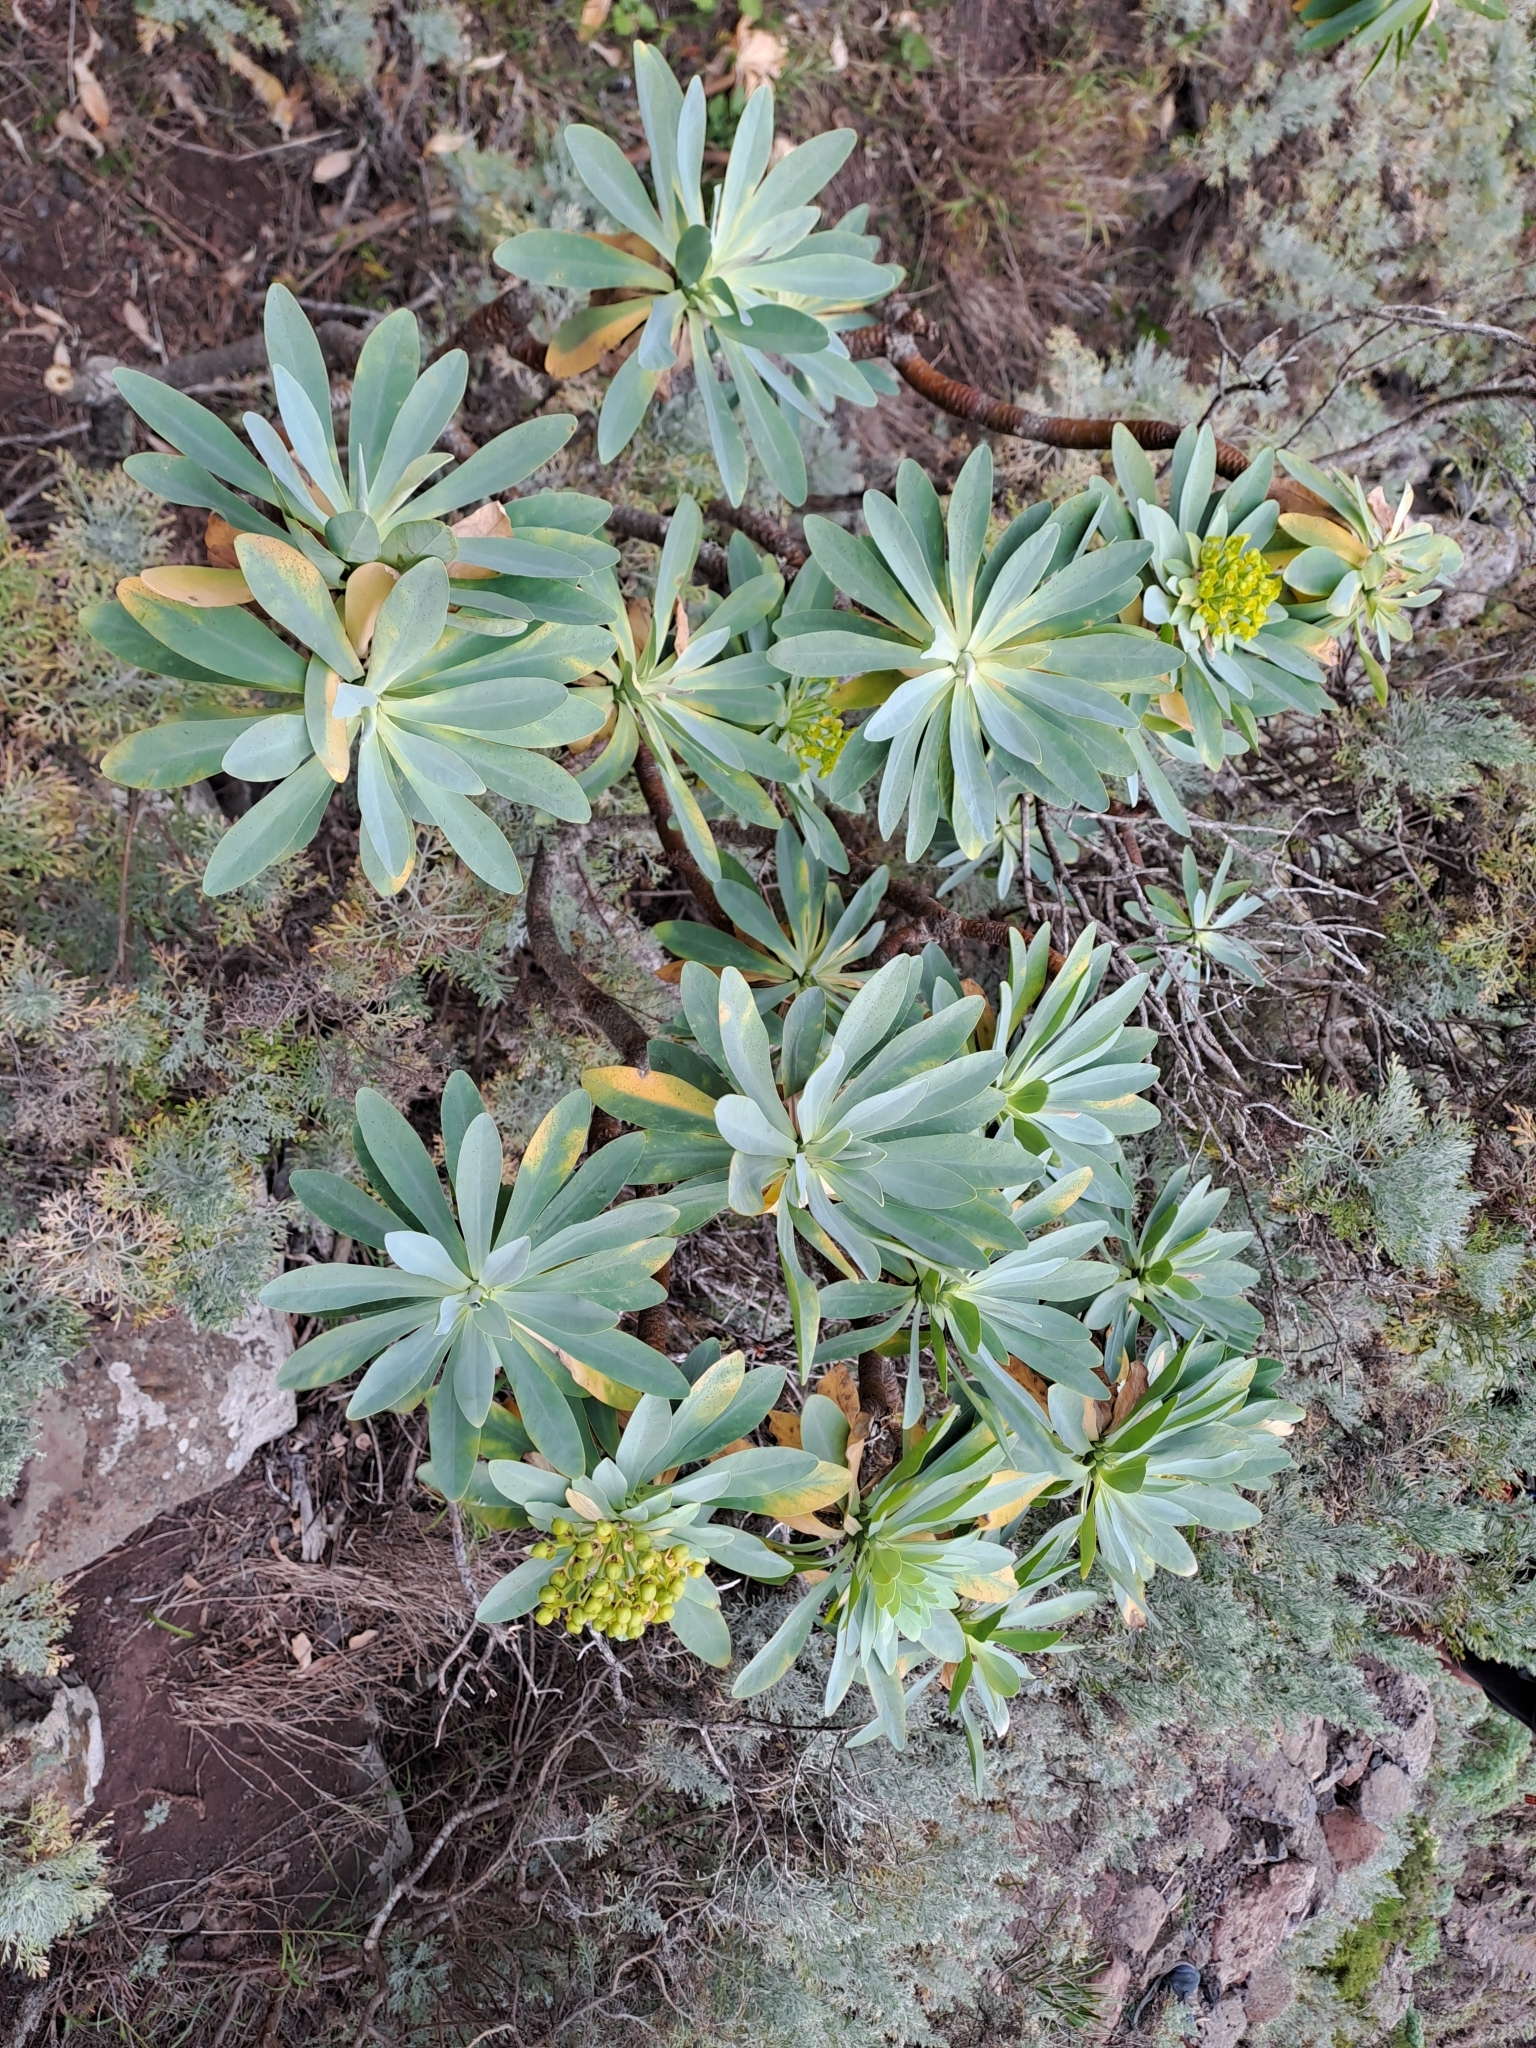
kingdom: Plantae
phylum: Tracheophyta
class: Magnoliopsida
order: Malpighiales
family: Euphorbiaceae
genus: Euphorbia
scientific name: Euphorbia atropurpurea
